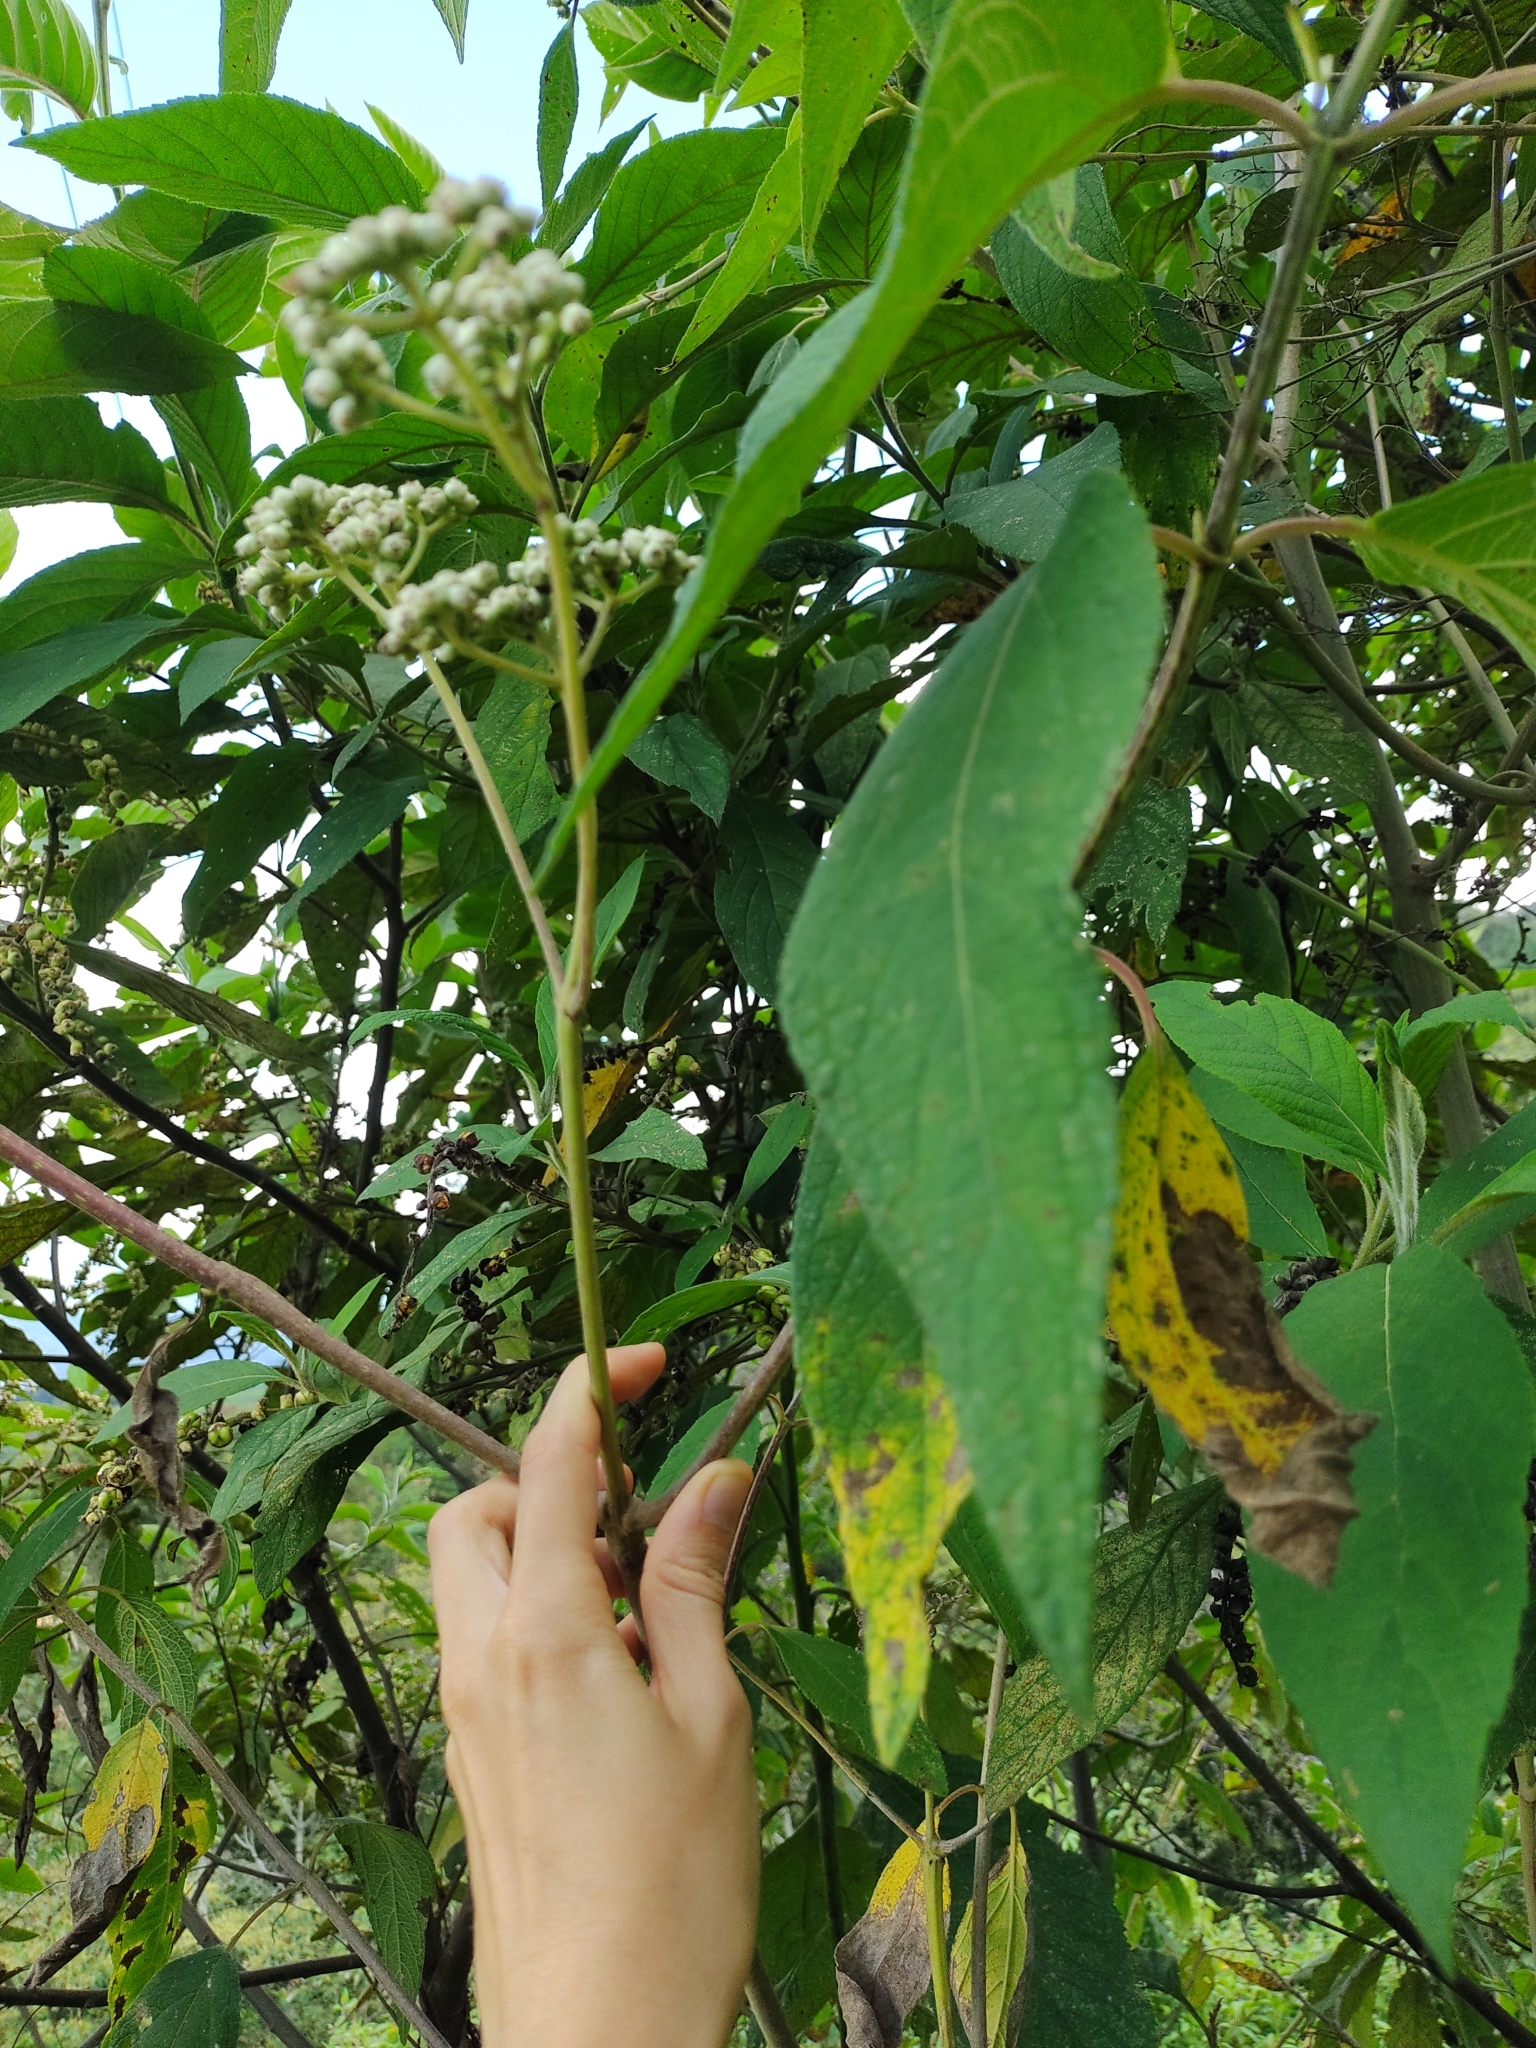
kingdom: Plantae
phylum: Tracheophyta
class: Magnoliopsida
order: Asterales
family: Asteraceae
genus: Ageratina
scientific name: Ageratina popayanensis
